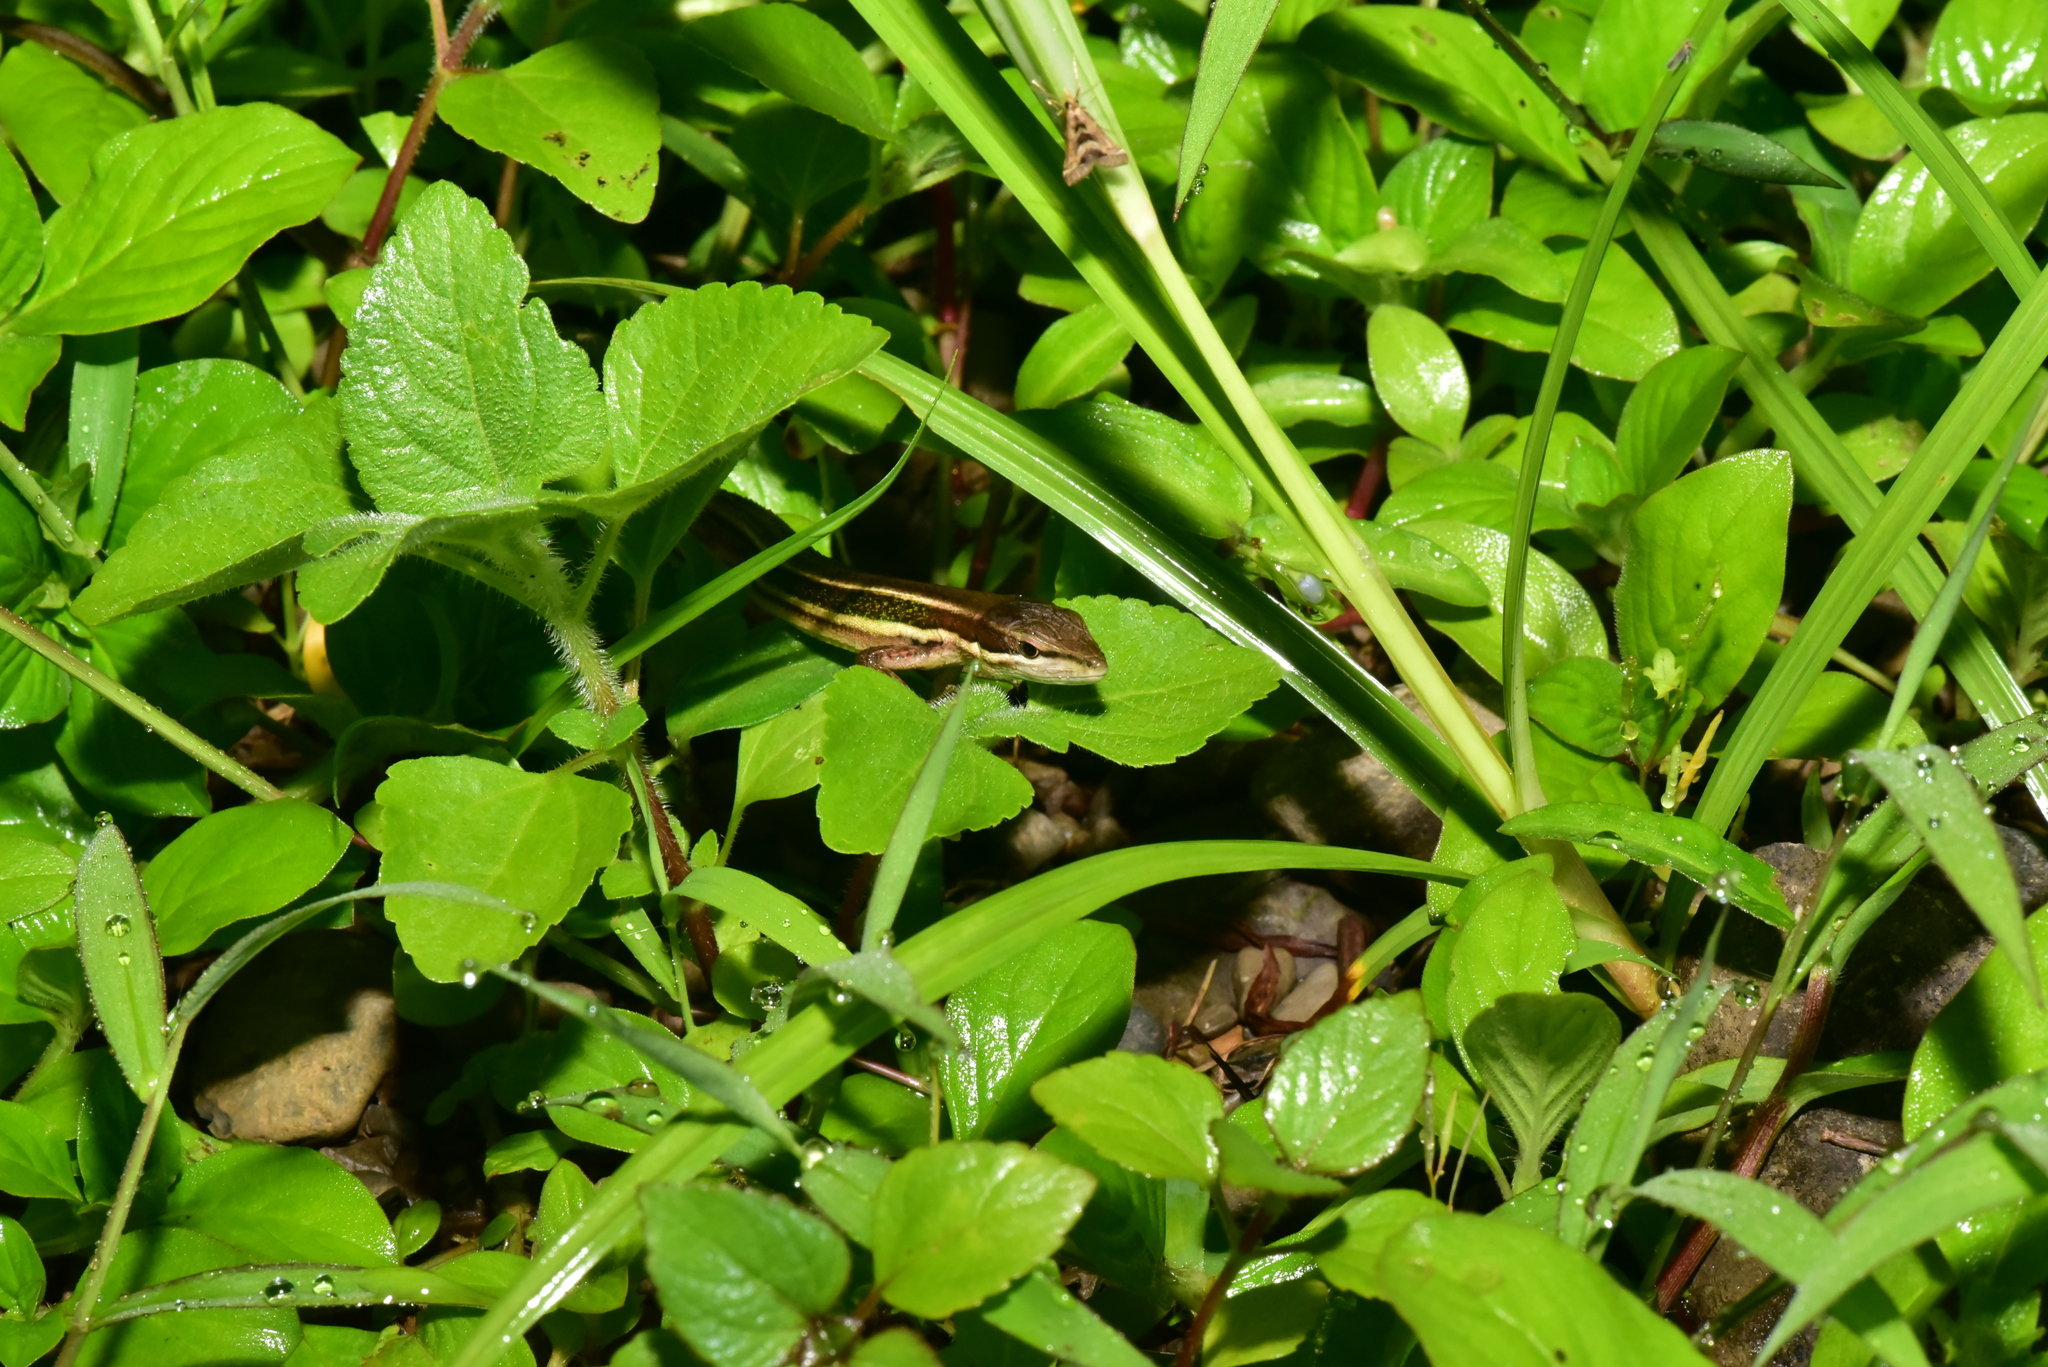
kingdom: Animalia
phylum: Chordata
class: Squamata
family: Lacertidae
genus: Takydromus
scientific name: Takydromus viridipunctatus
